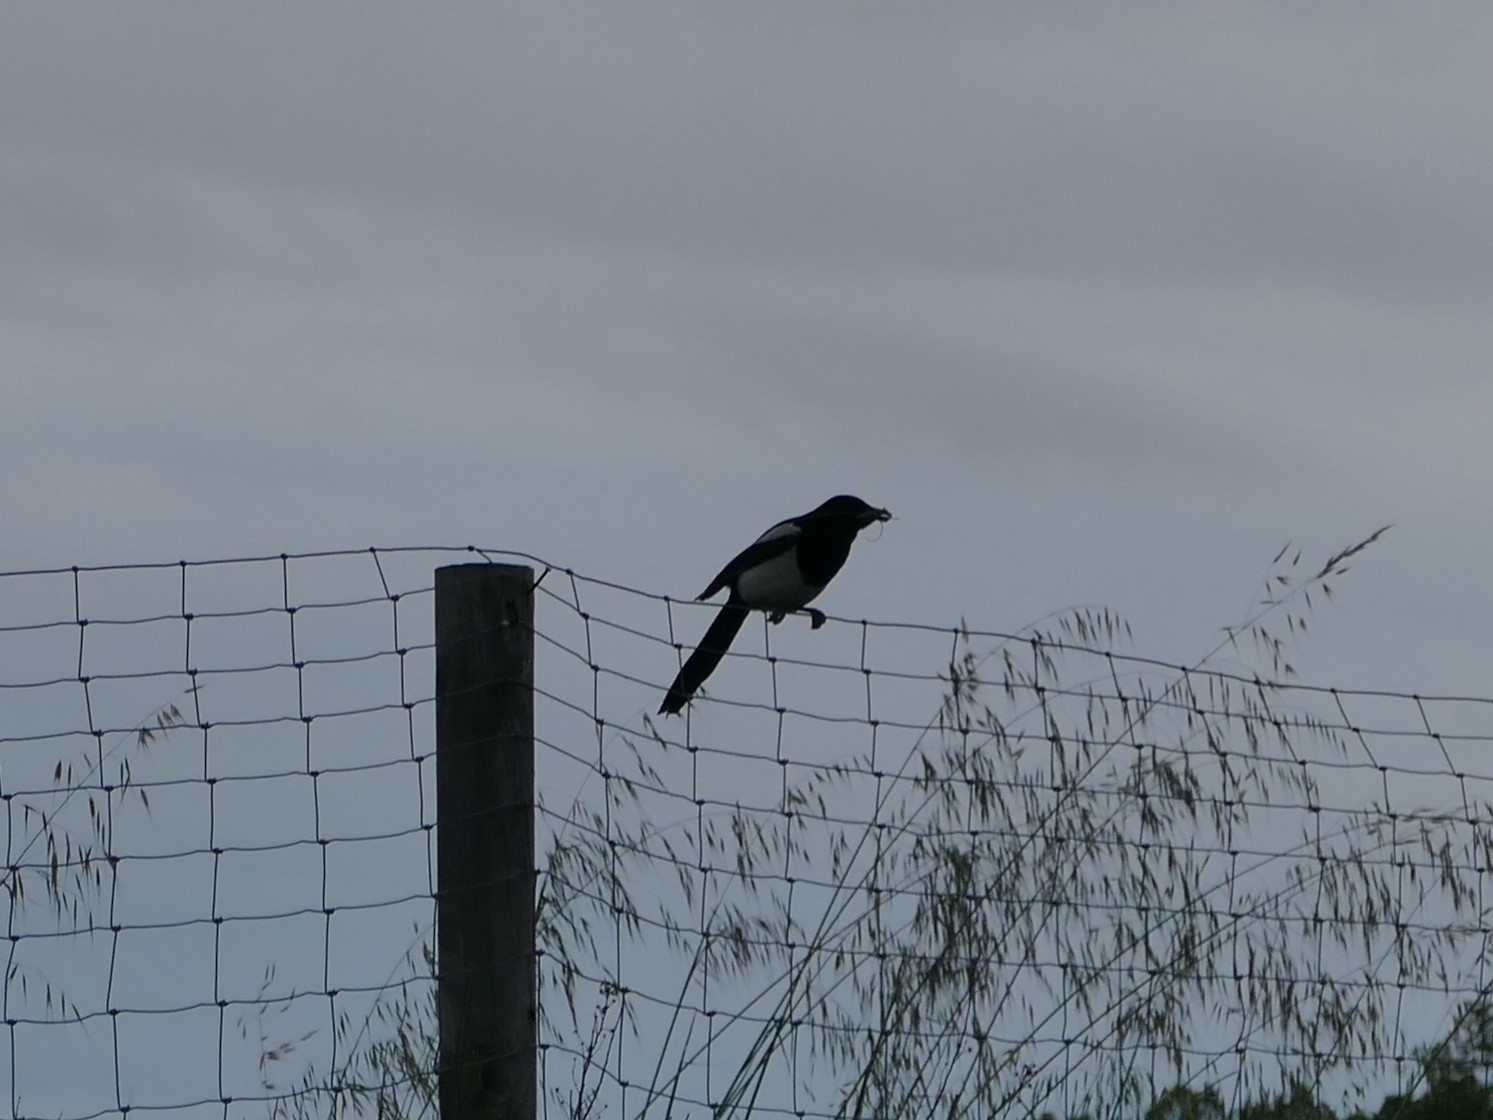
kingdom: Animalia
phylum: Chordata
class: Aves
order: Passeriformes
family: Corvidae
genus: Pica
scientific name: Pica pica
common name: Eurasian magpie
